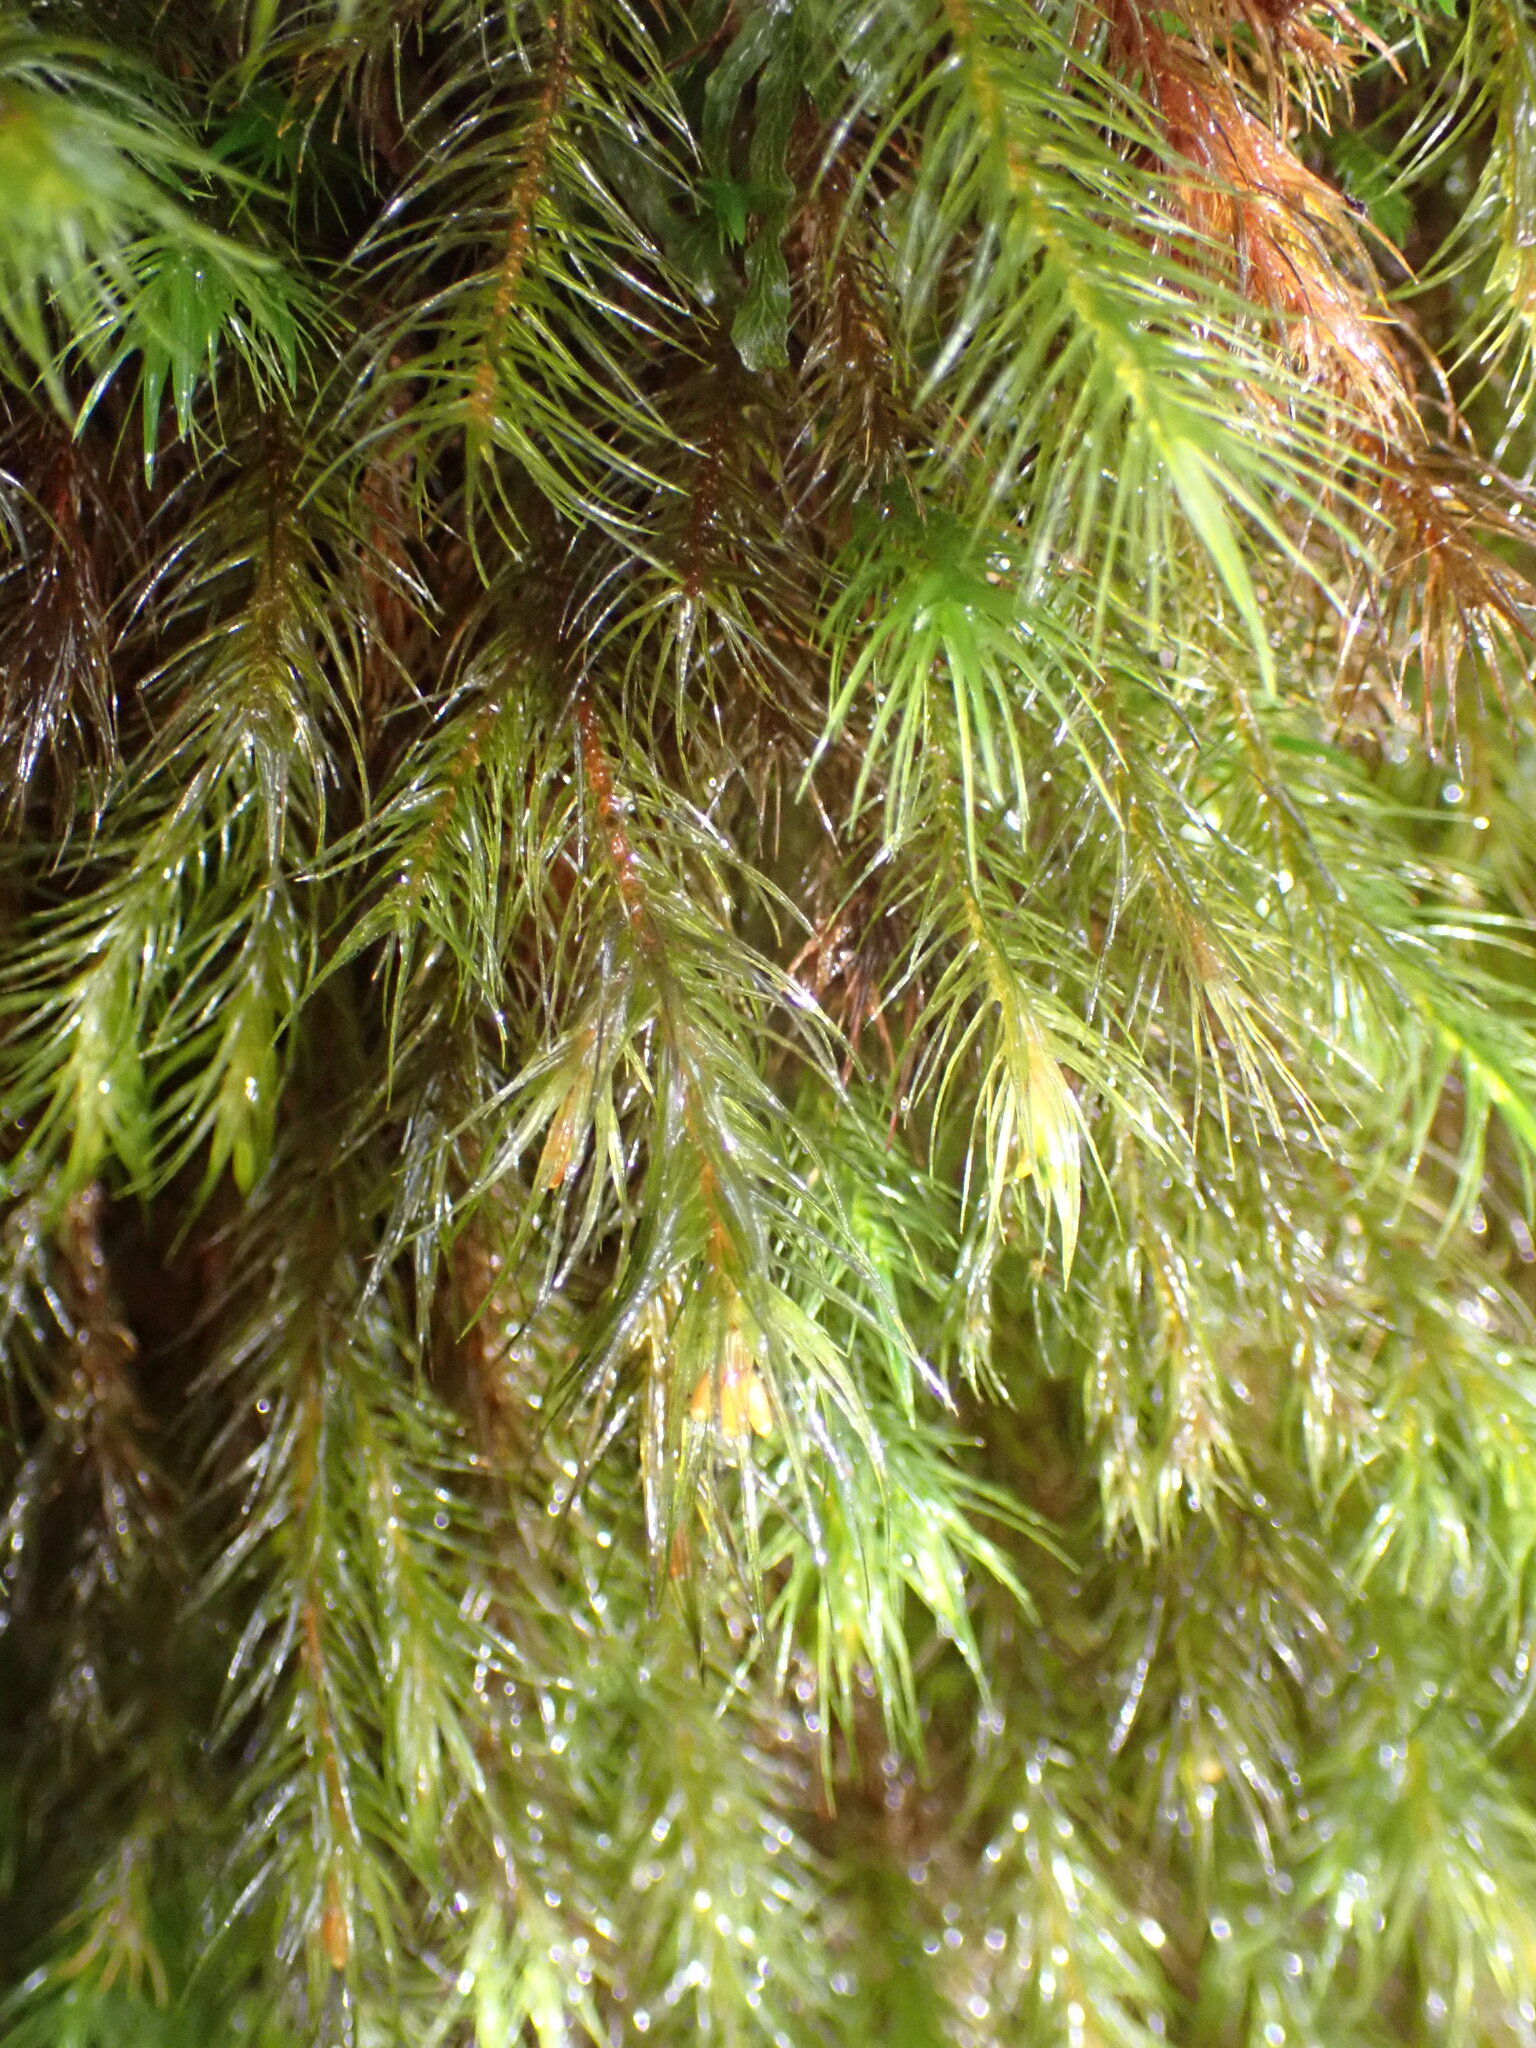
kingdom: Plantae
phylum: Bryophyta
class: Bryopsida
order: Rhizogoniales
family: Calomniaceae
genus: Cryptopodium
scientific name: Cryptopodium bartramioides
